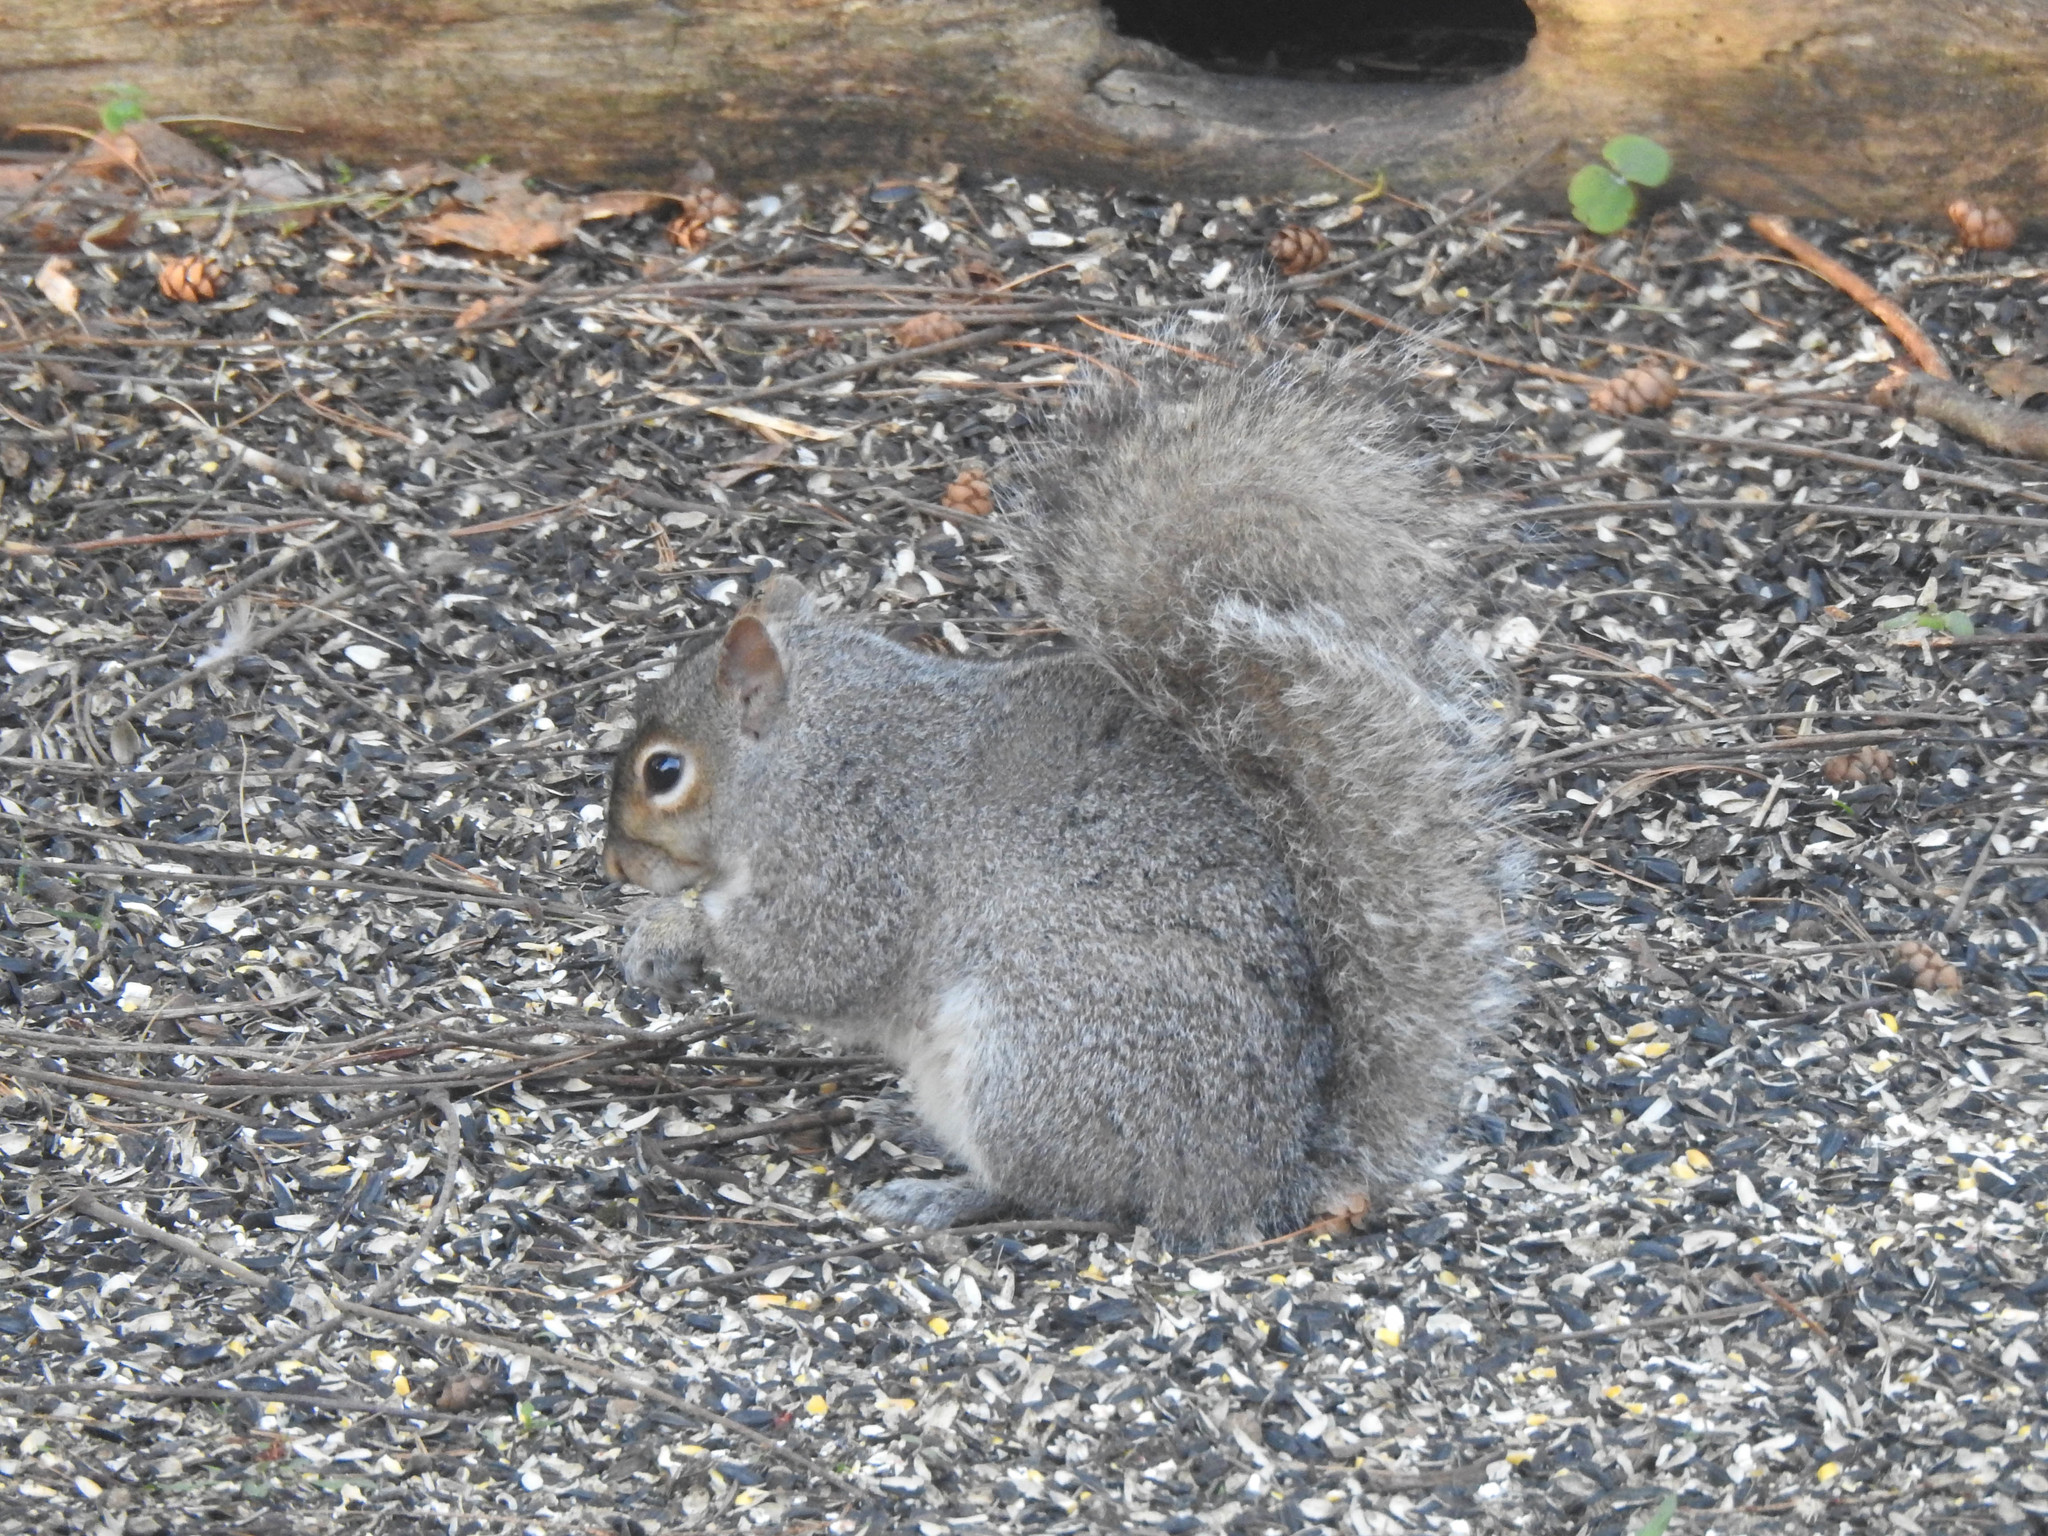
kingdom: Animalia
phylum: Chordata
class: Mammalia
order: Rodentia
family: Sciuridae
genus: Sciurus
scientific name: Sciurus carolinensis
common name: Eastern gray squirrel
